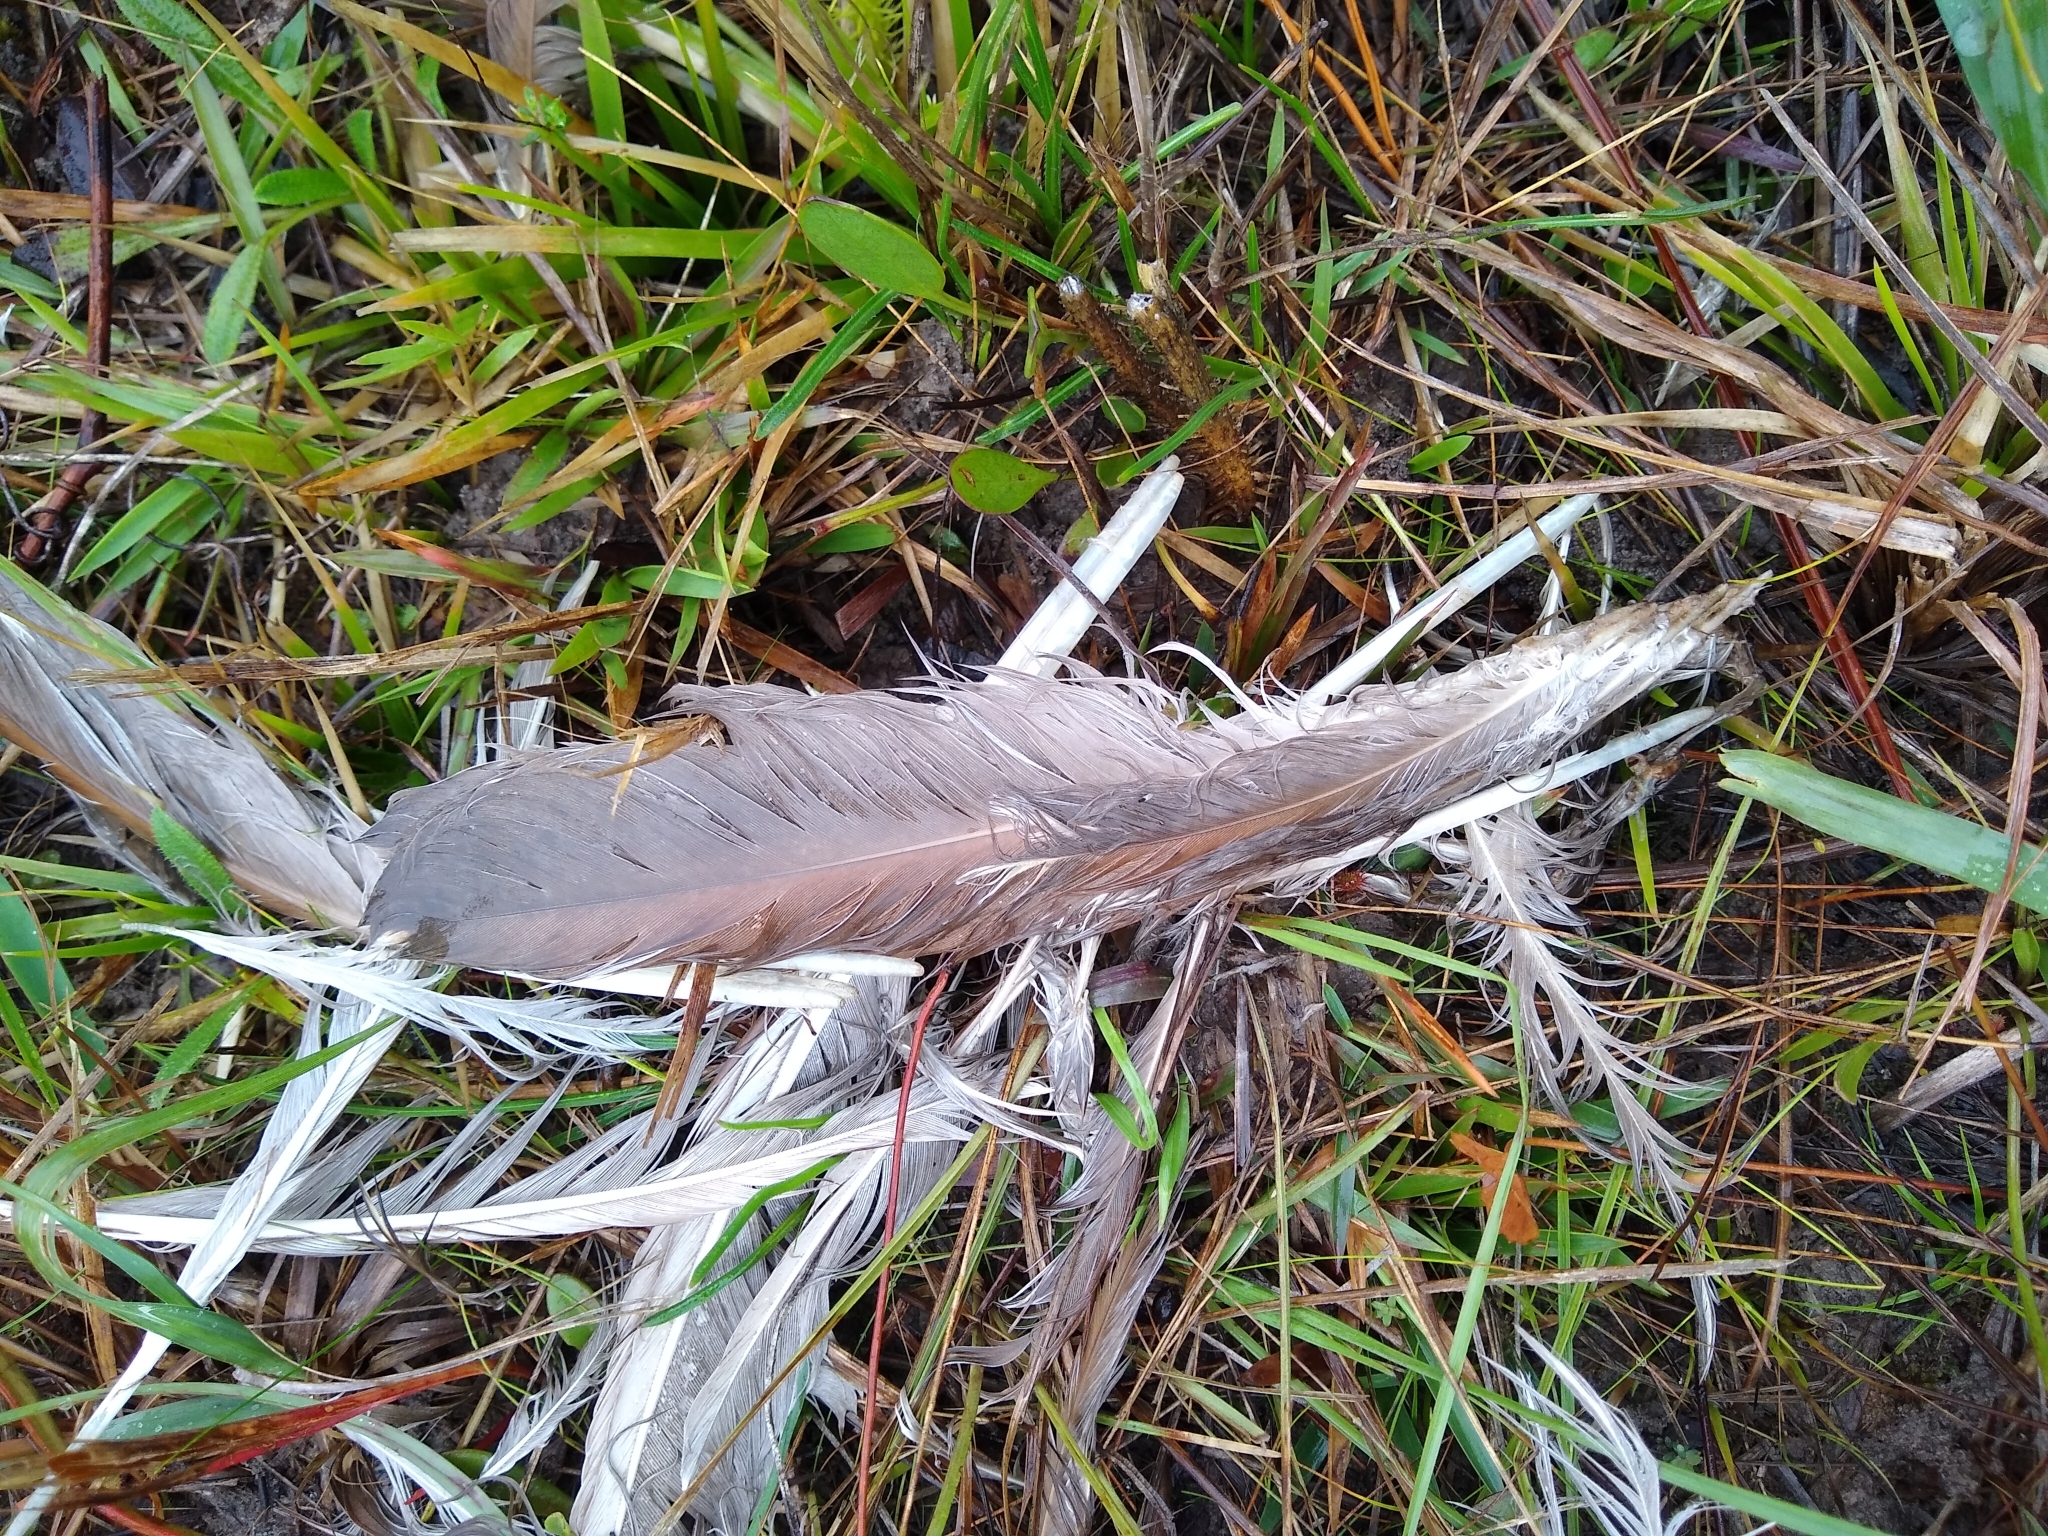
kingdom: Animalia
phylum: Chordata
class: Aves
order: Pelecaniformes
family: Ardeidae
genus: Nycticorax
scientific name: Nycticorax nycticorax
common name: Black-crowned night heron
